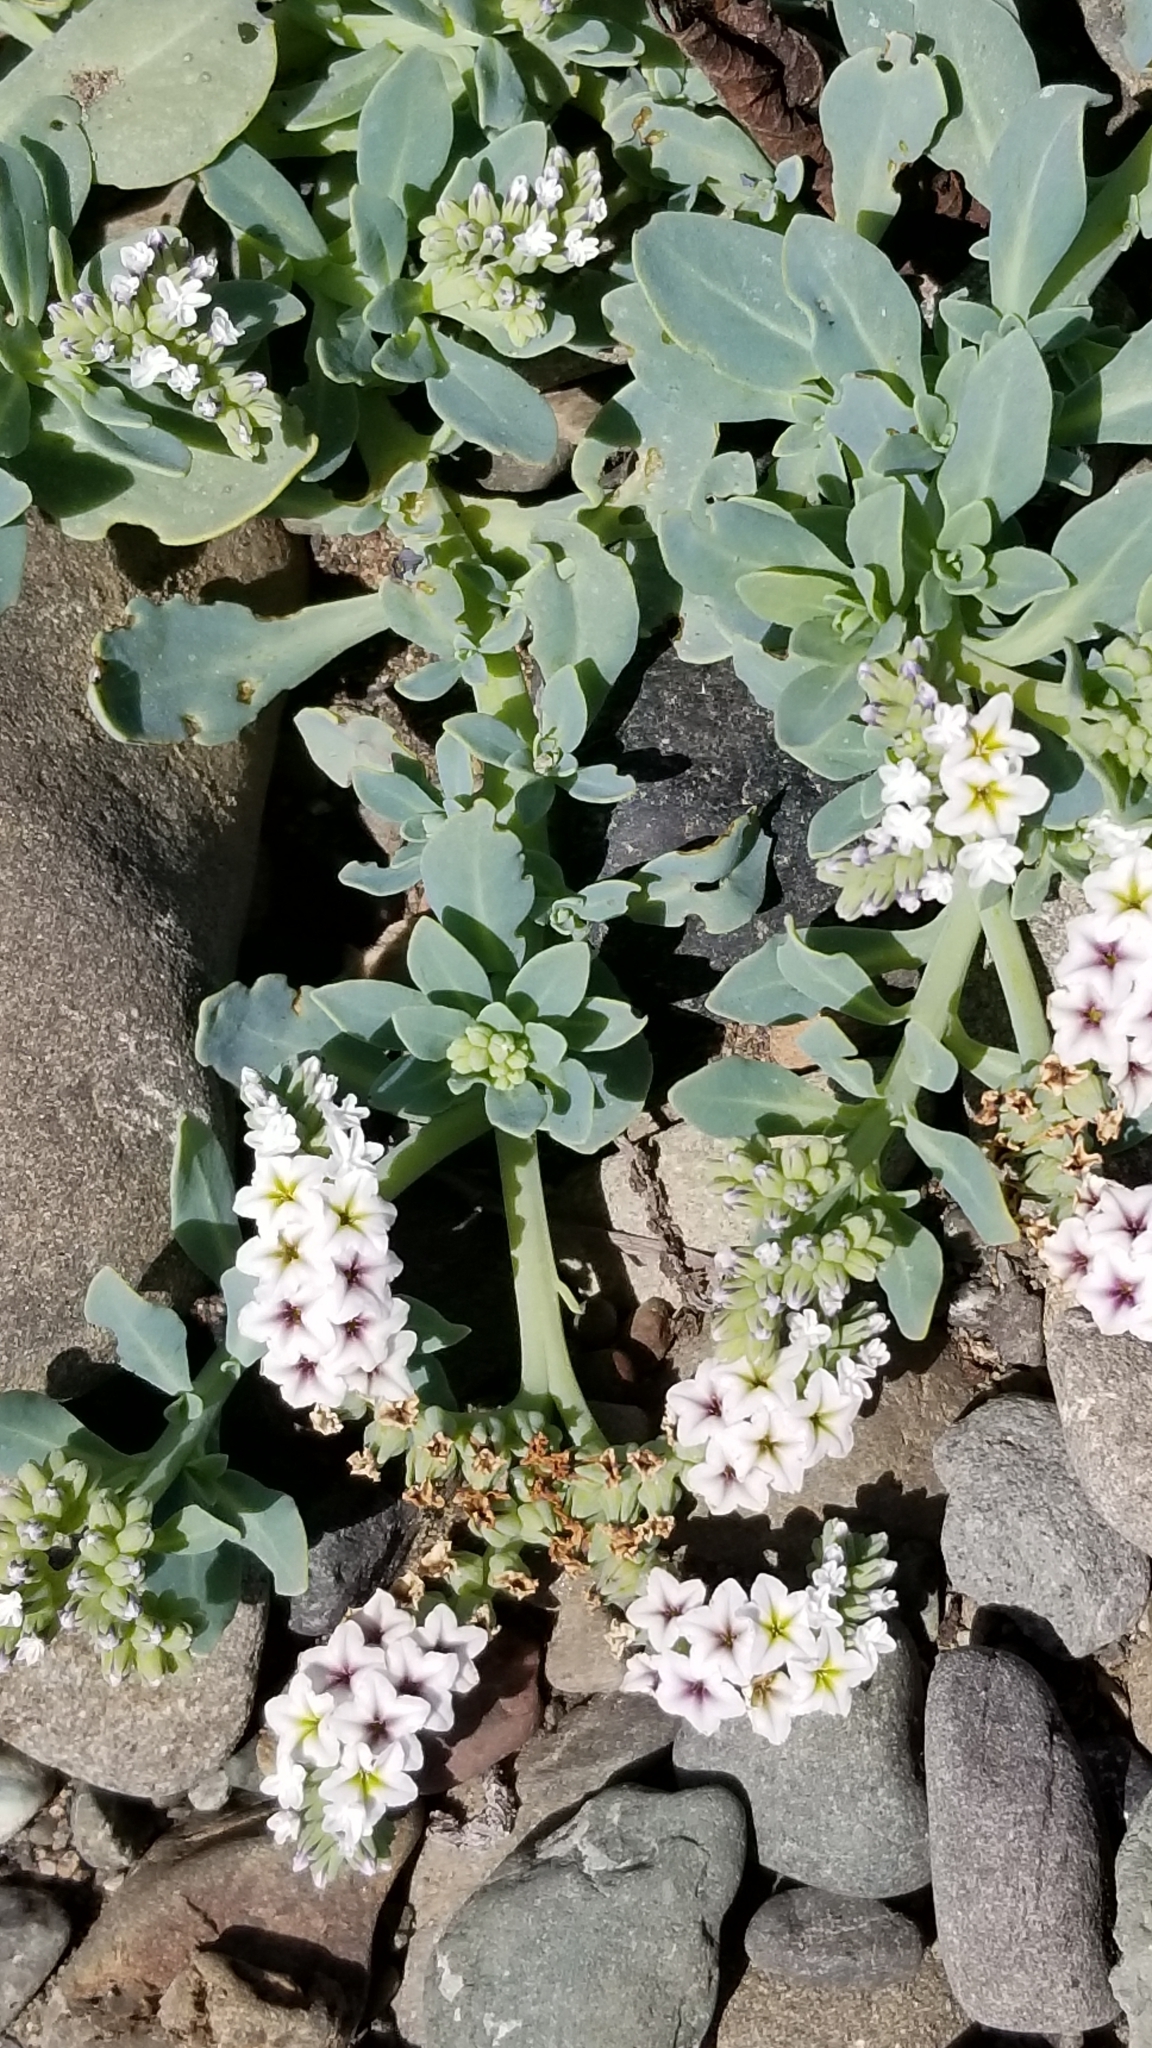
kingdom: Plantae
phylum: Tracheophyta
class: Magnoliopsida
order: Boraginales
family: Heliotropiaceae
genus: Heliotropium
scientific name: Heliotropium curassavicum
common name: Seaside heliotrope
